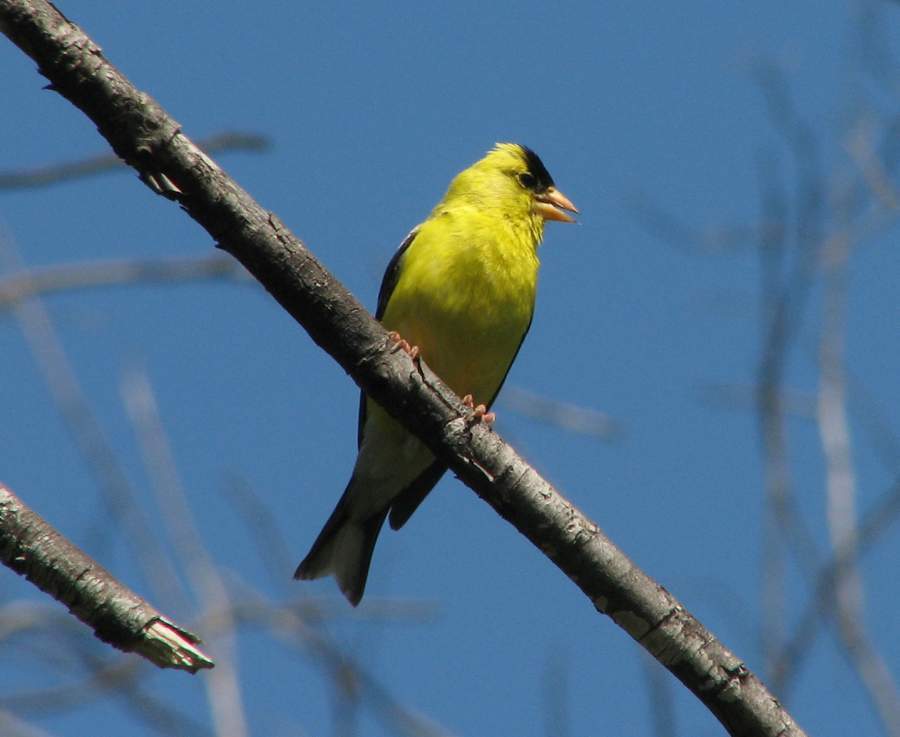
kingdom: Animalia
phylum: Chordata
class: Aves
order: Passeriformes
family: Fringillidae
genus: Spinus
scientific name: Spinus tristis
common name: American goldfinch
